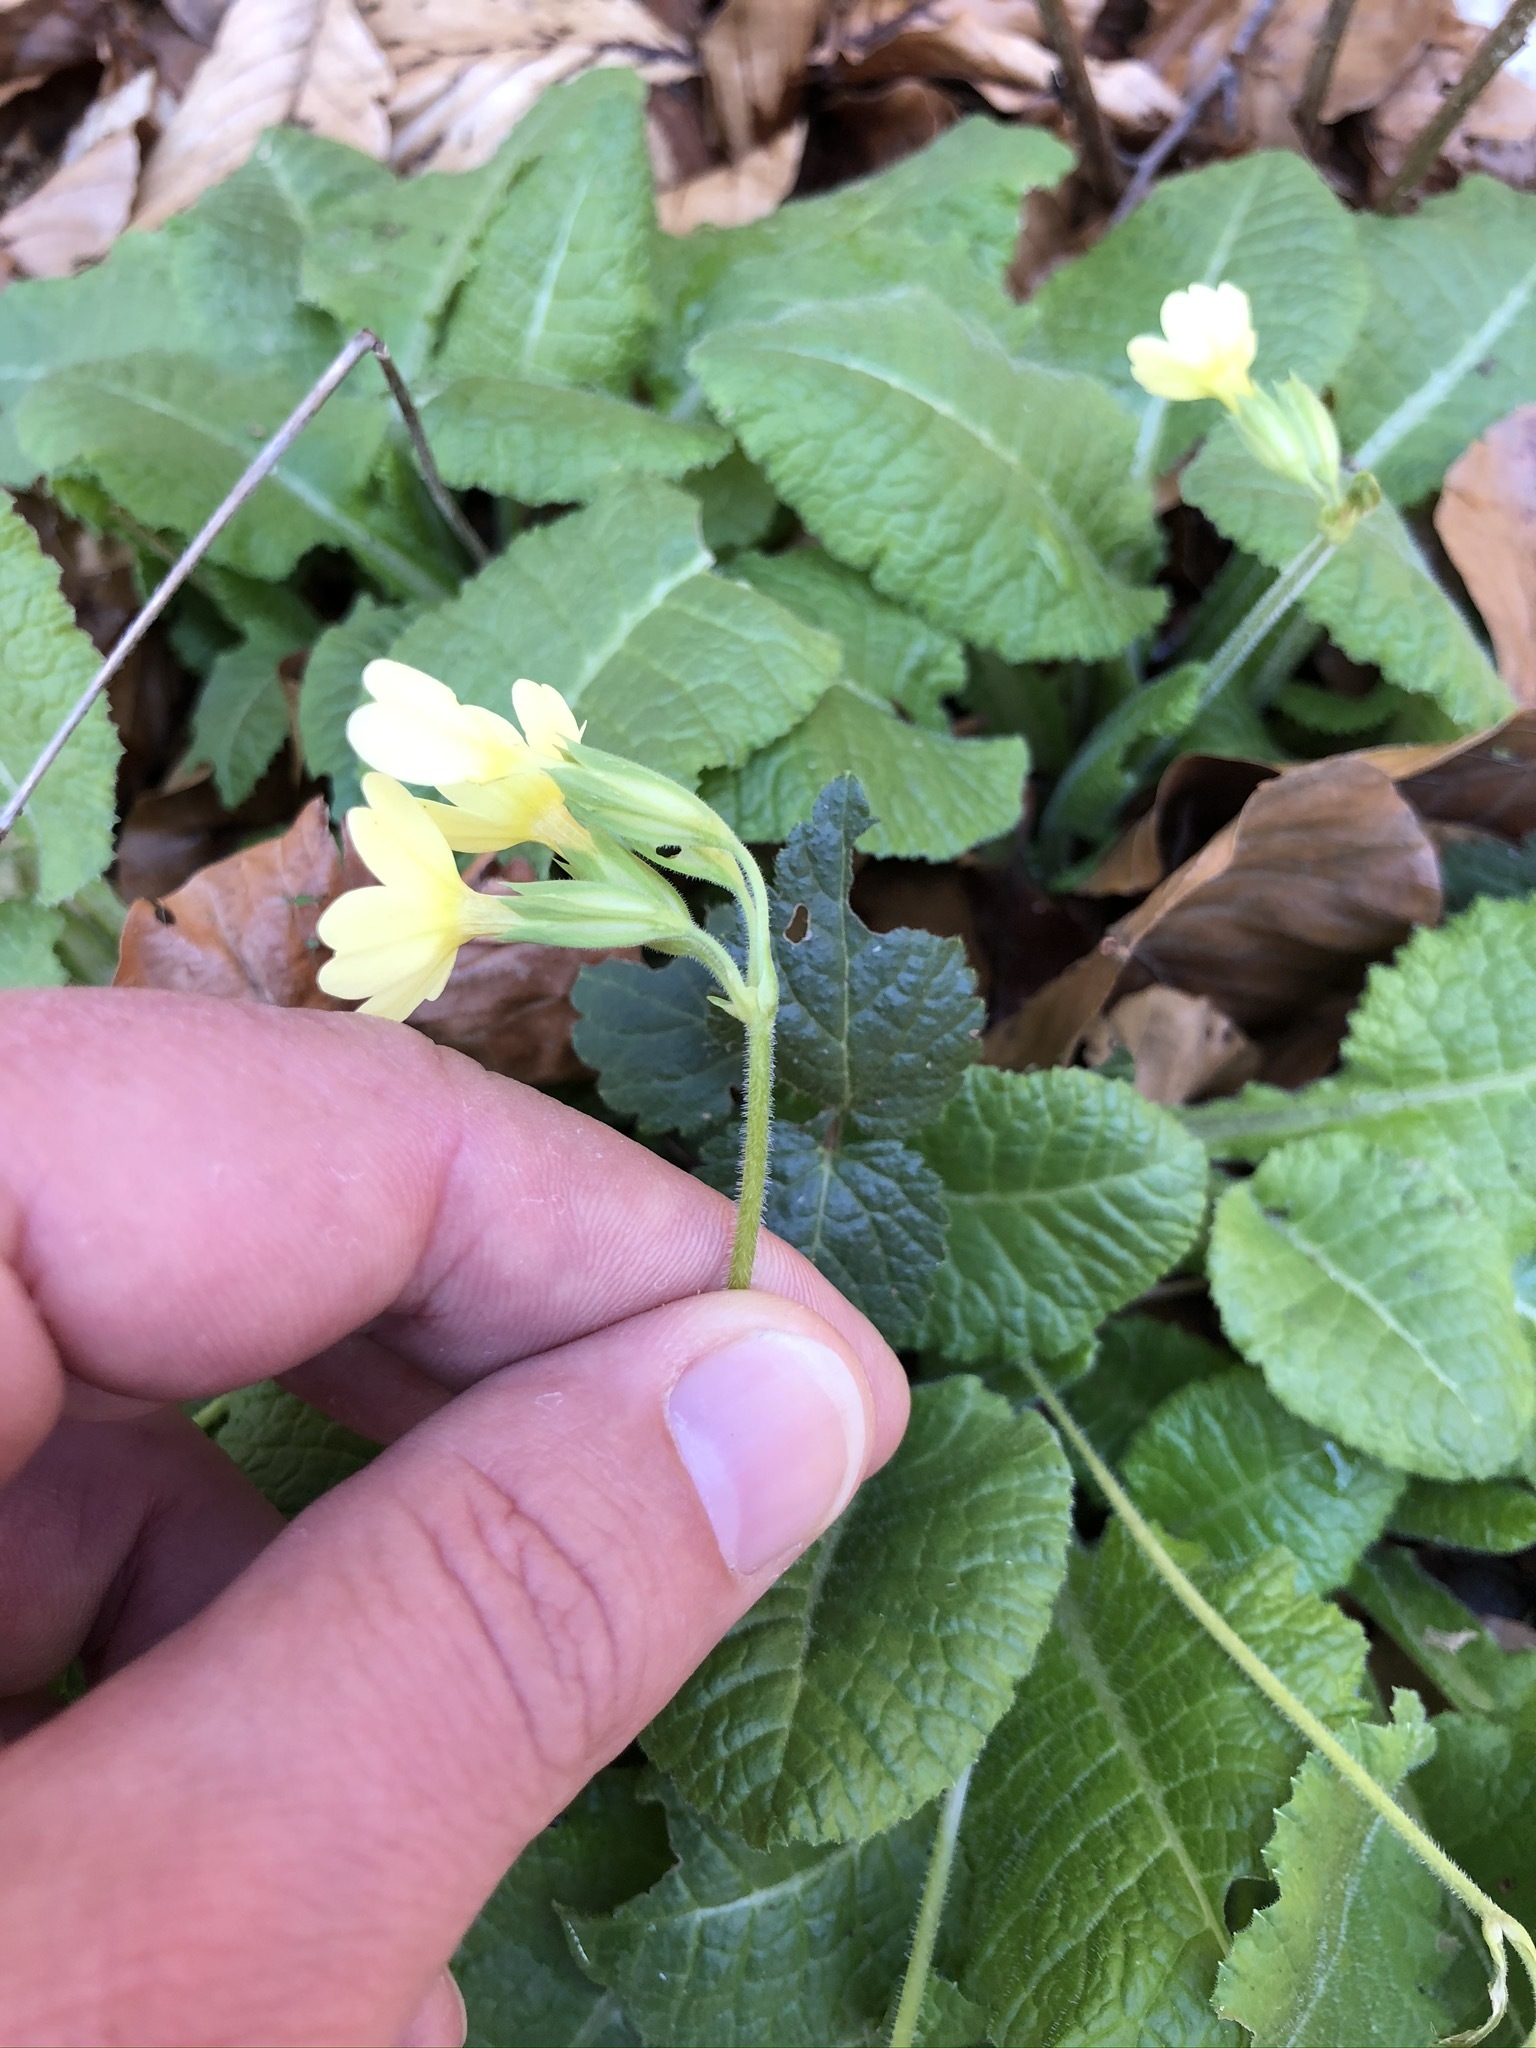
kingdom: Plantae
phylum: Tracheophyta
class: Magnoliopsida
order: Ericales
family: Primulaceae
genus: Primula
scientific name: Primula elatior
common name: Oxlip
